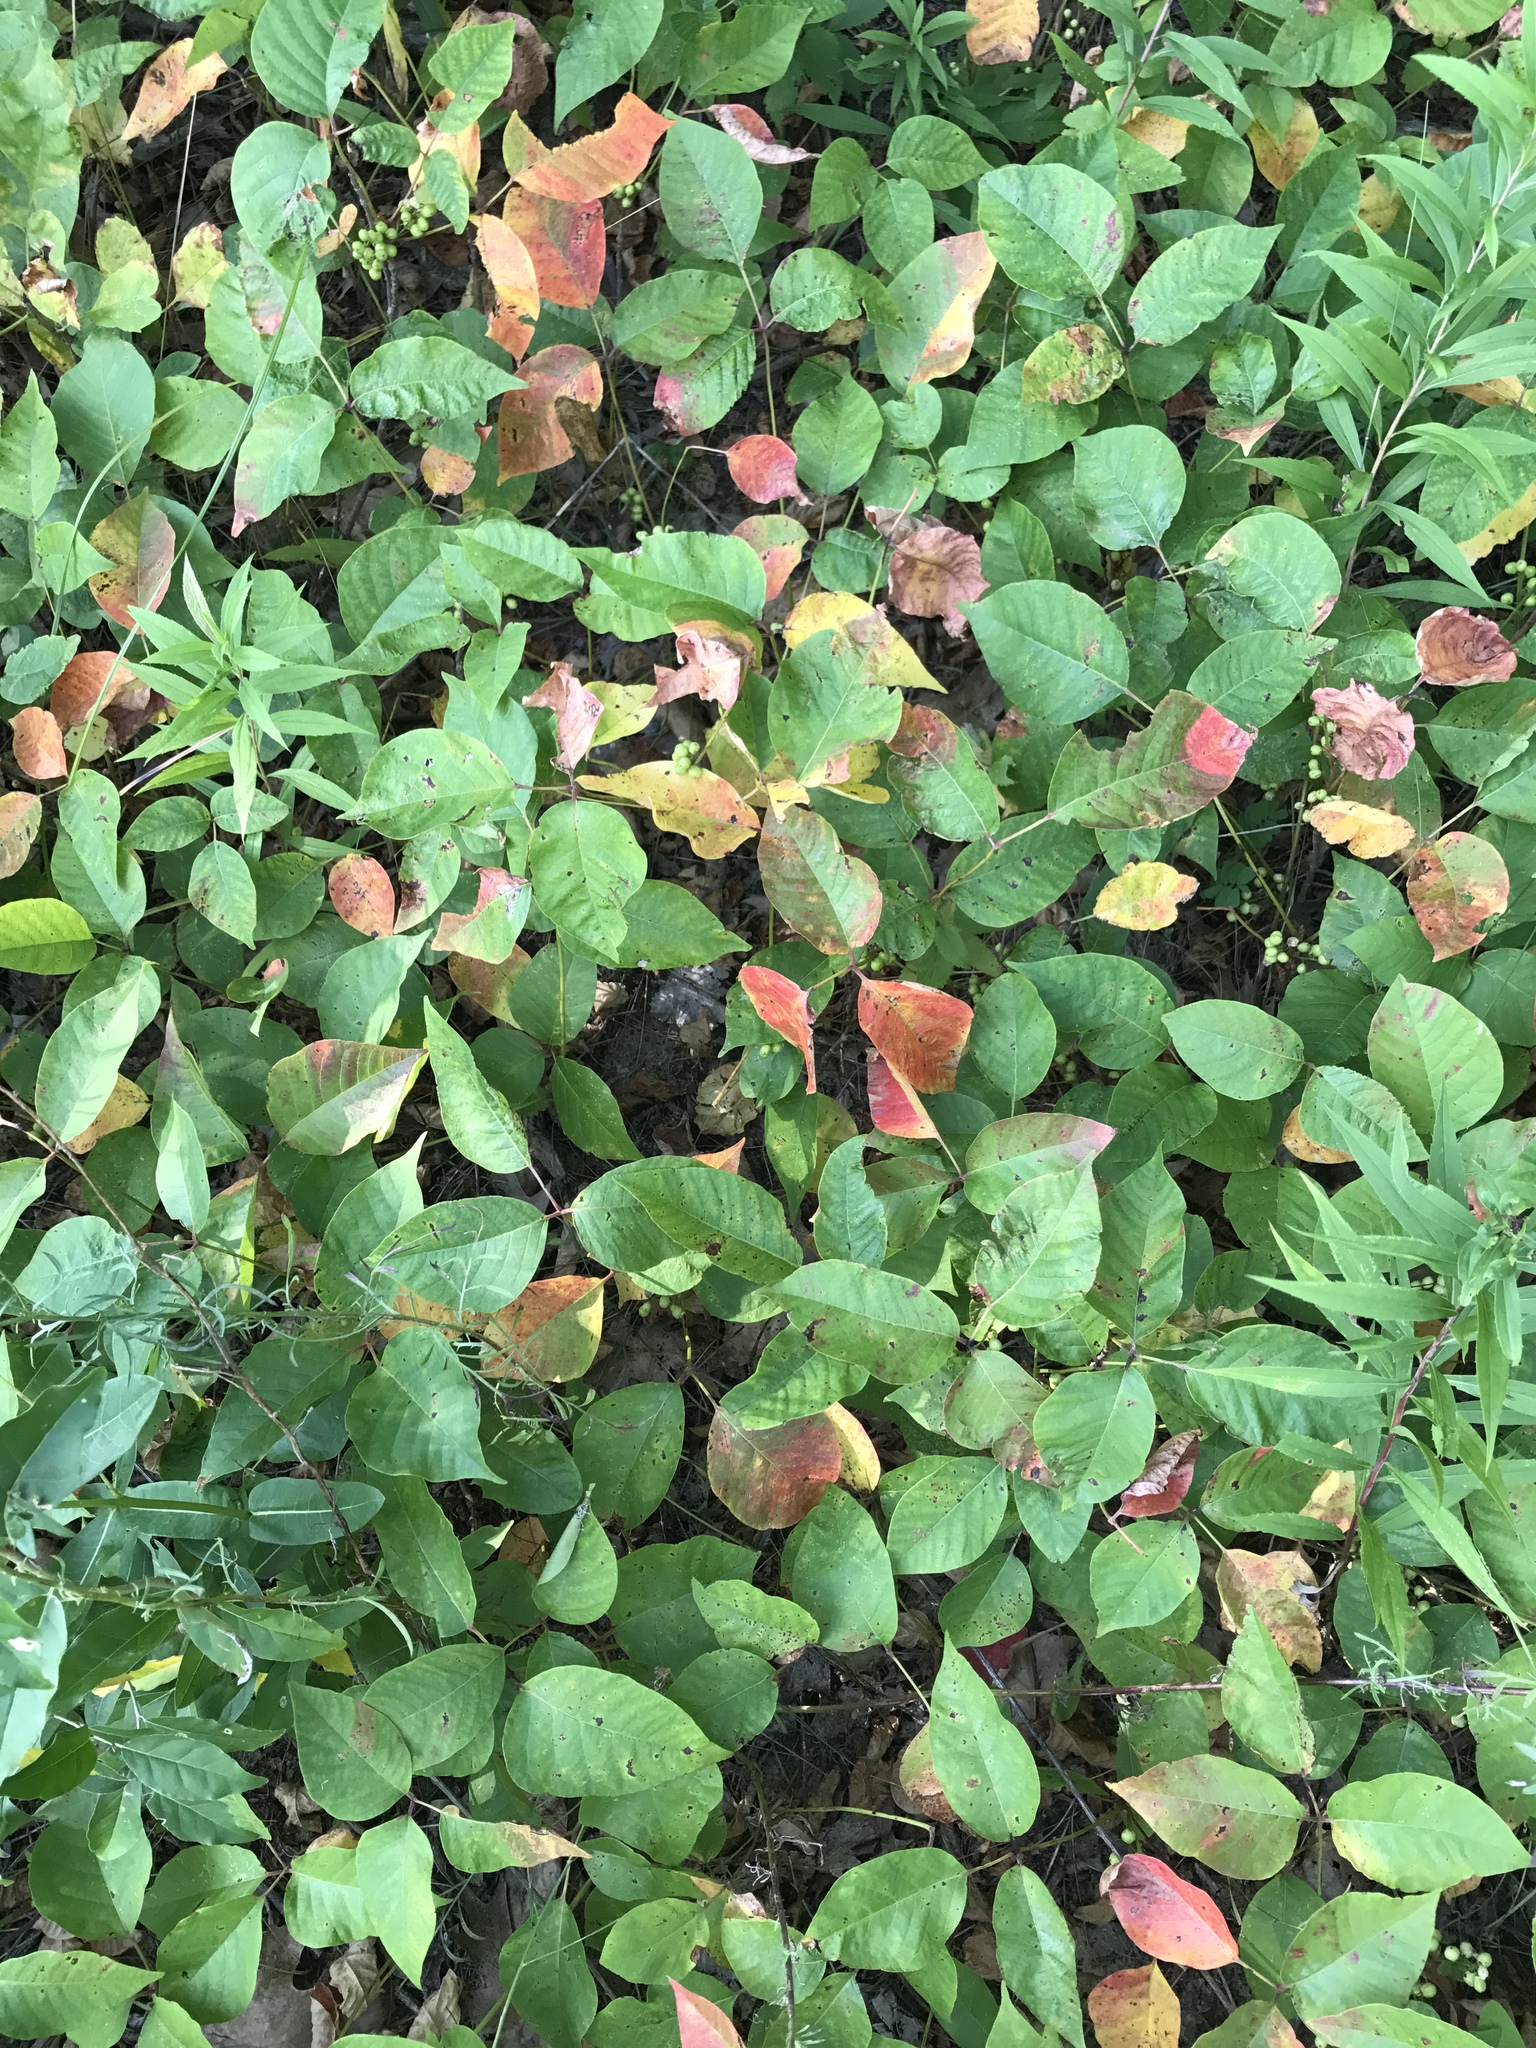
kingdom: Plantae
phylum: Tracheophyta
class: Magnoliopsida
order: Sapindales
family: Anacardiaceae
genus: Toxicodendron
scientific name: Toxicodendron radicans
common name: Poison ivy
